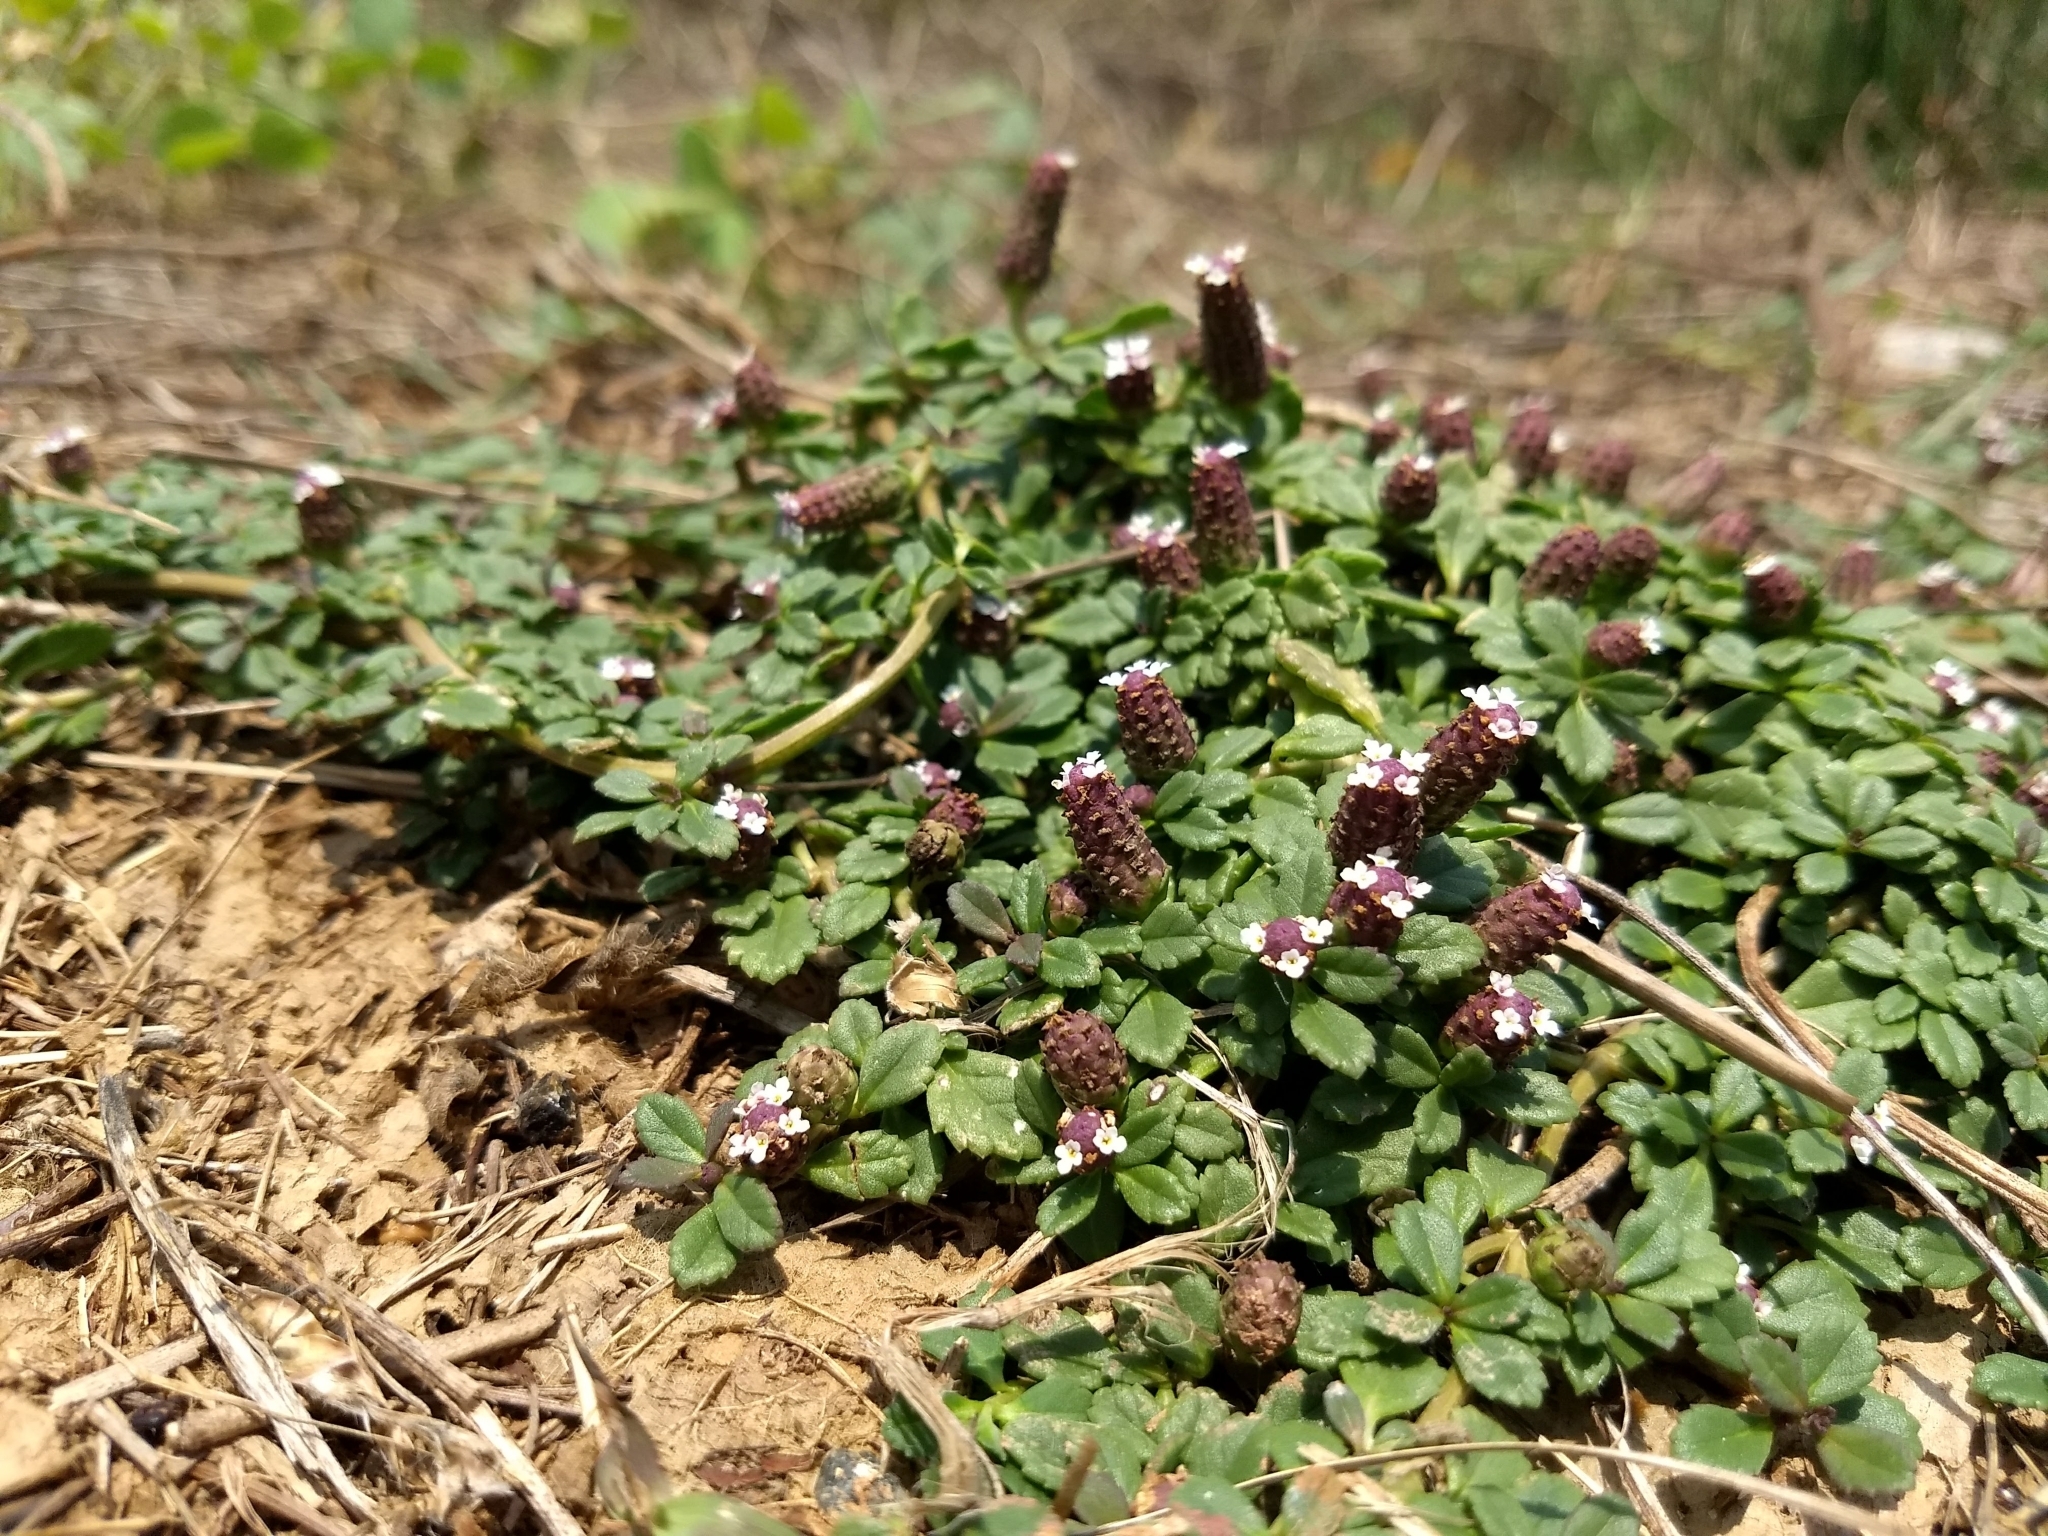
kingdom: Plantae
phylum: Tracheophyta
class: Magnoliopsida
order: Lamiales
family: Verbenaceae
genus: Phyla
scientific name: Phyla nodiflora
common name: Frogfruit
